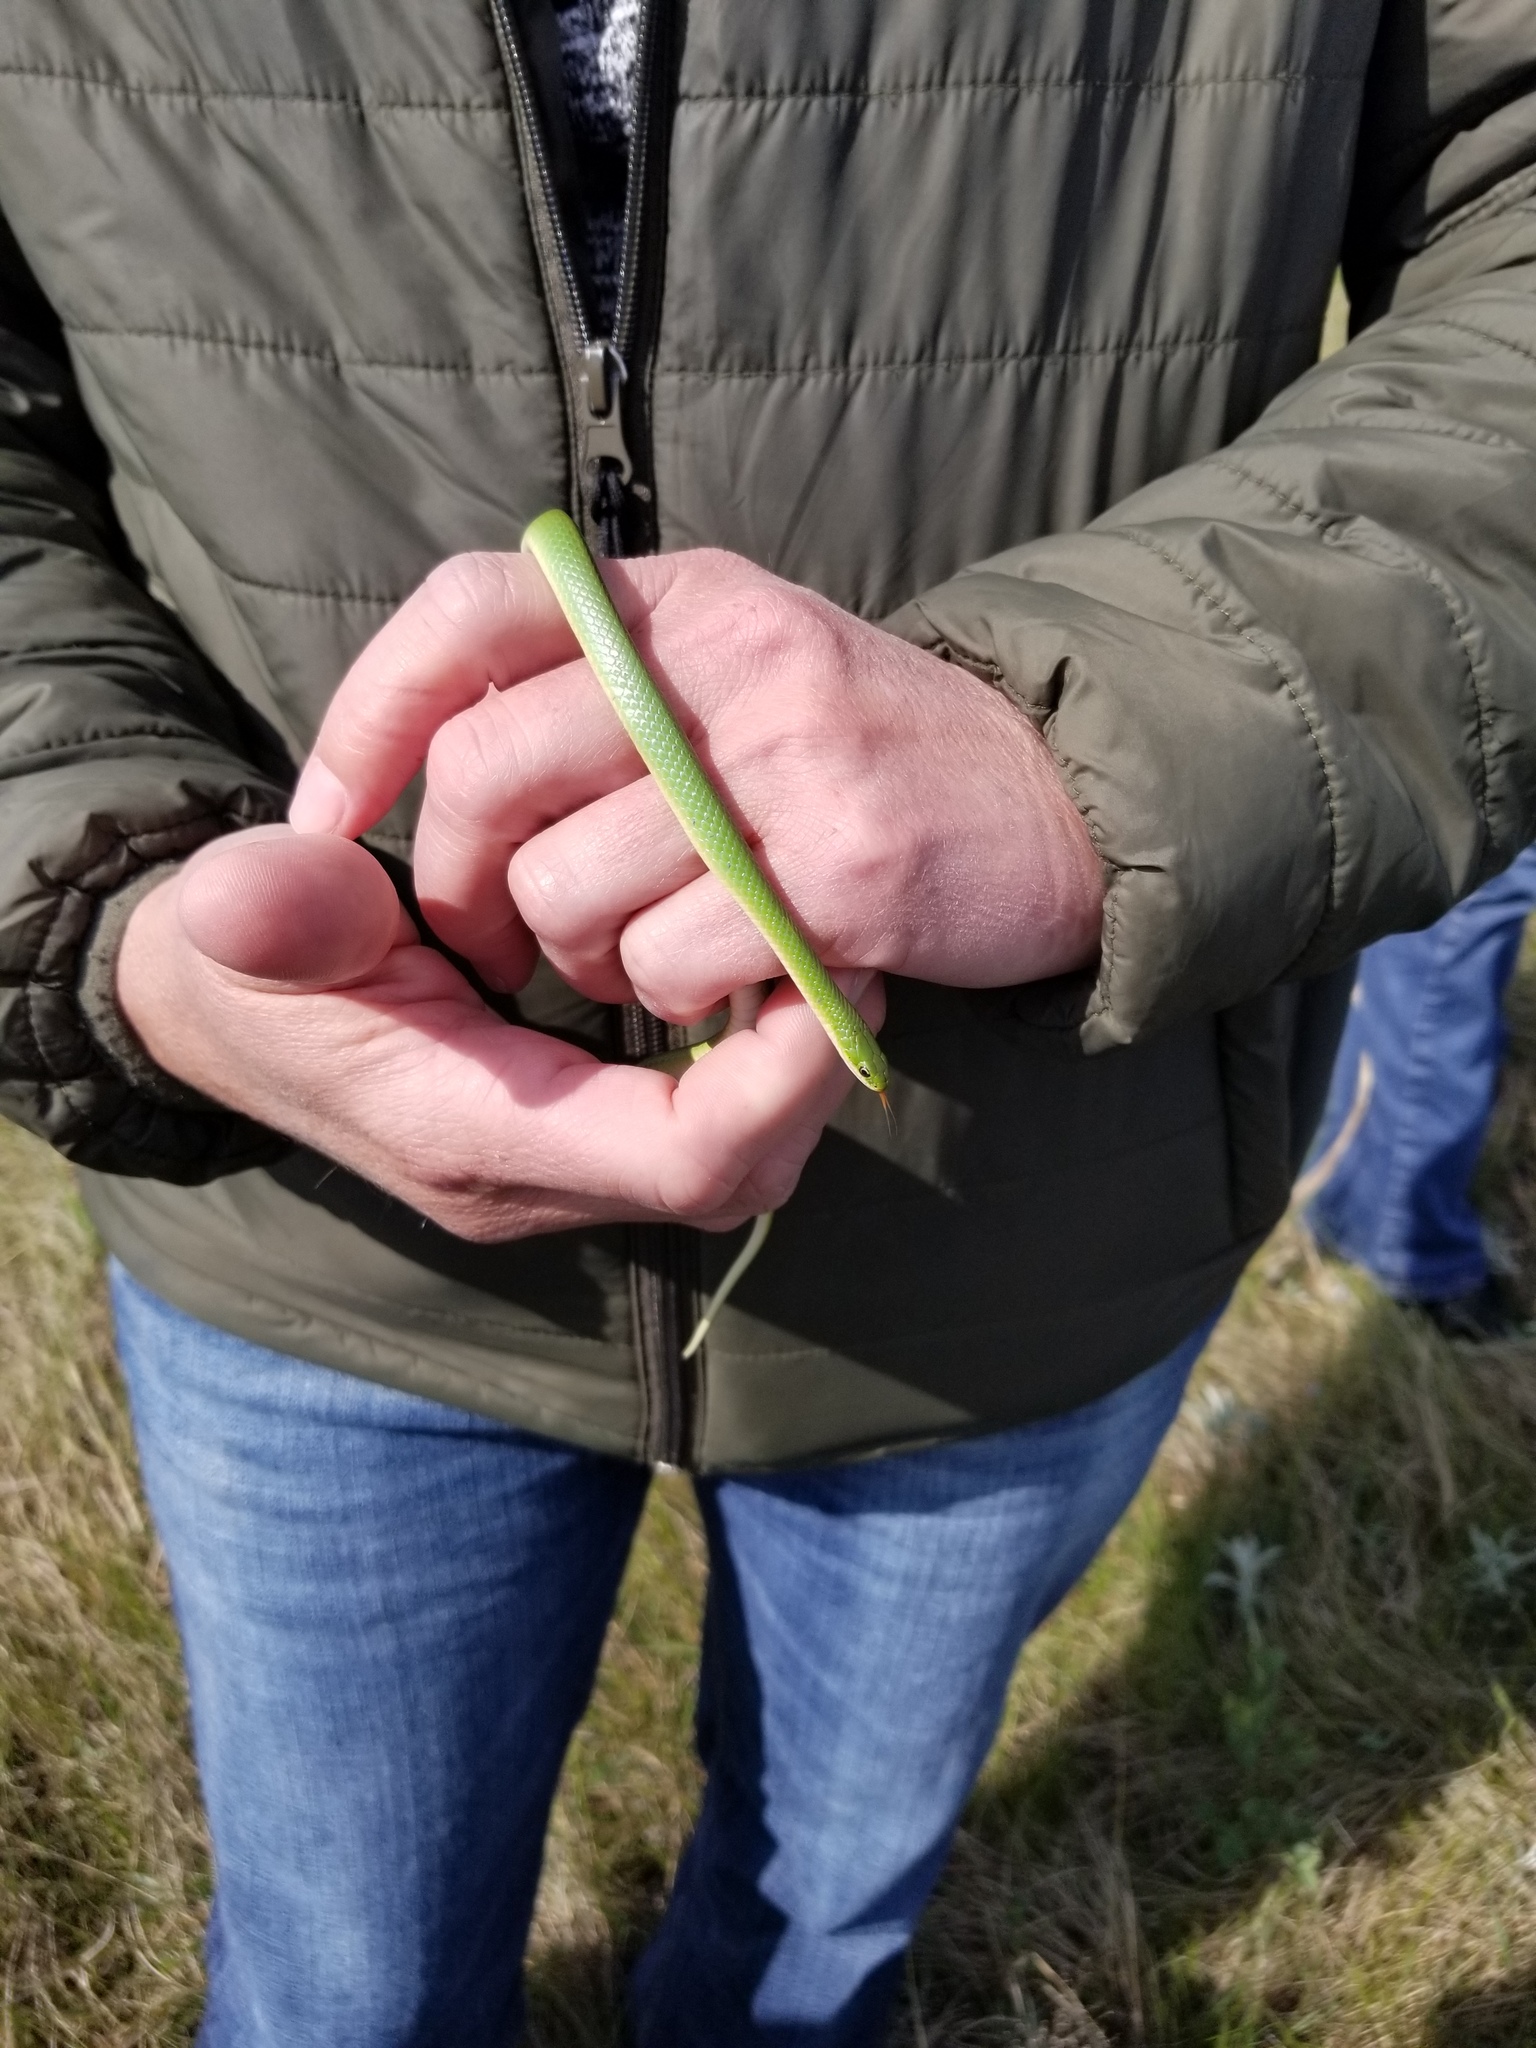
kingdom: Animalia
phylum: Chordata
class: Squamata
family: Colubridae
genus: Opheodrys
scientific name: Opheodrys vernalis
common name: Smooth green snake
